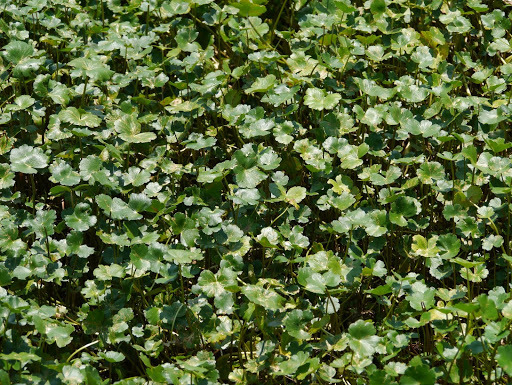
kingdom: Plantae
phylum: Tracheophyta
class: Magnoliopsida
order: Apiales
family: Araliaceae
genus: Hydrocotyle
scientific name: Hydrocotyle ranunculoides
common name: Floating pennywort
